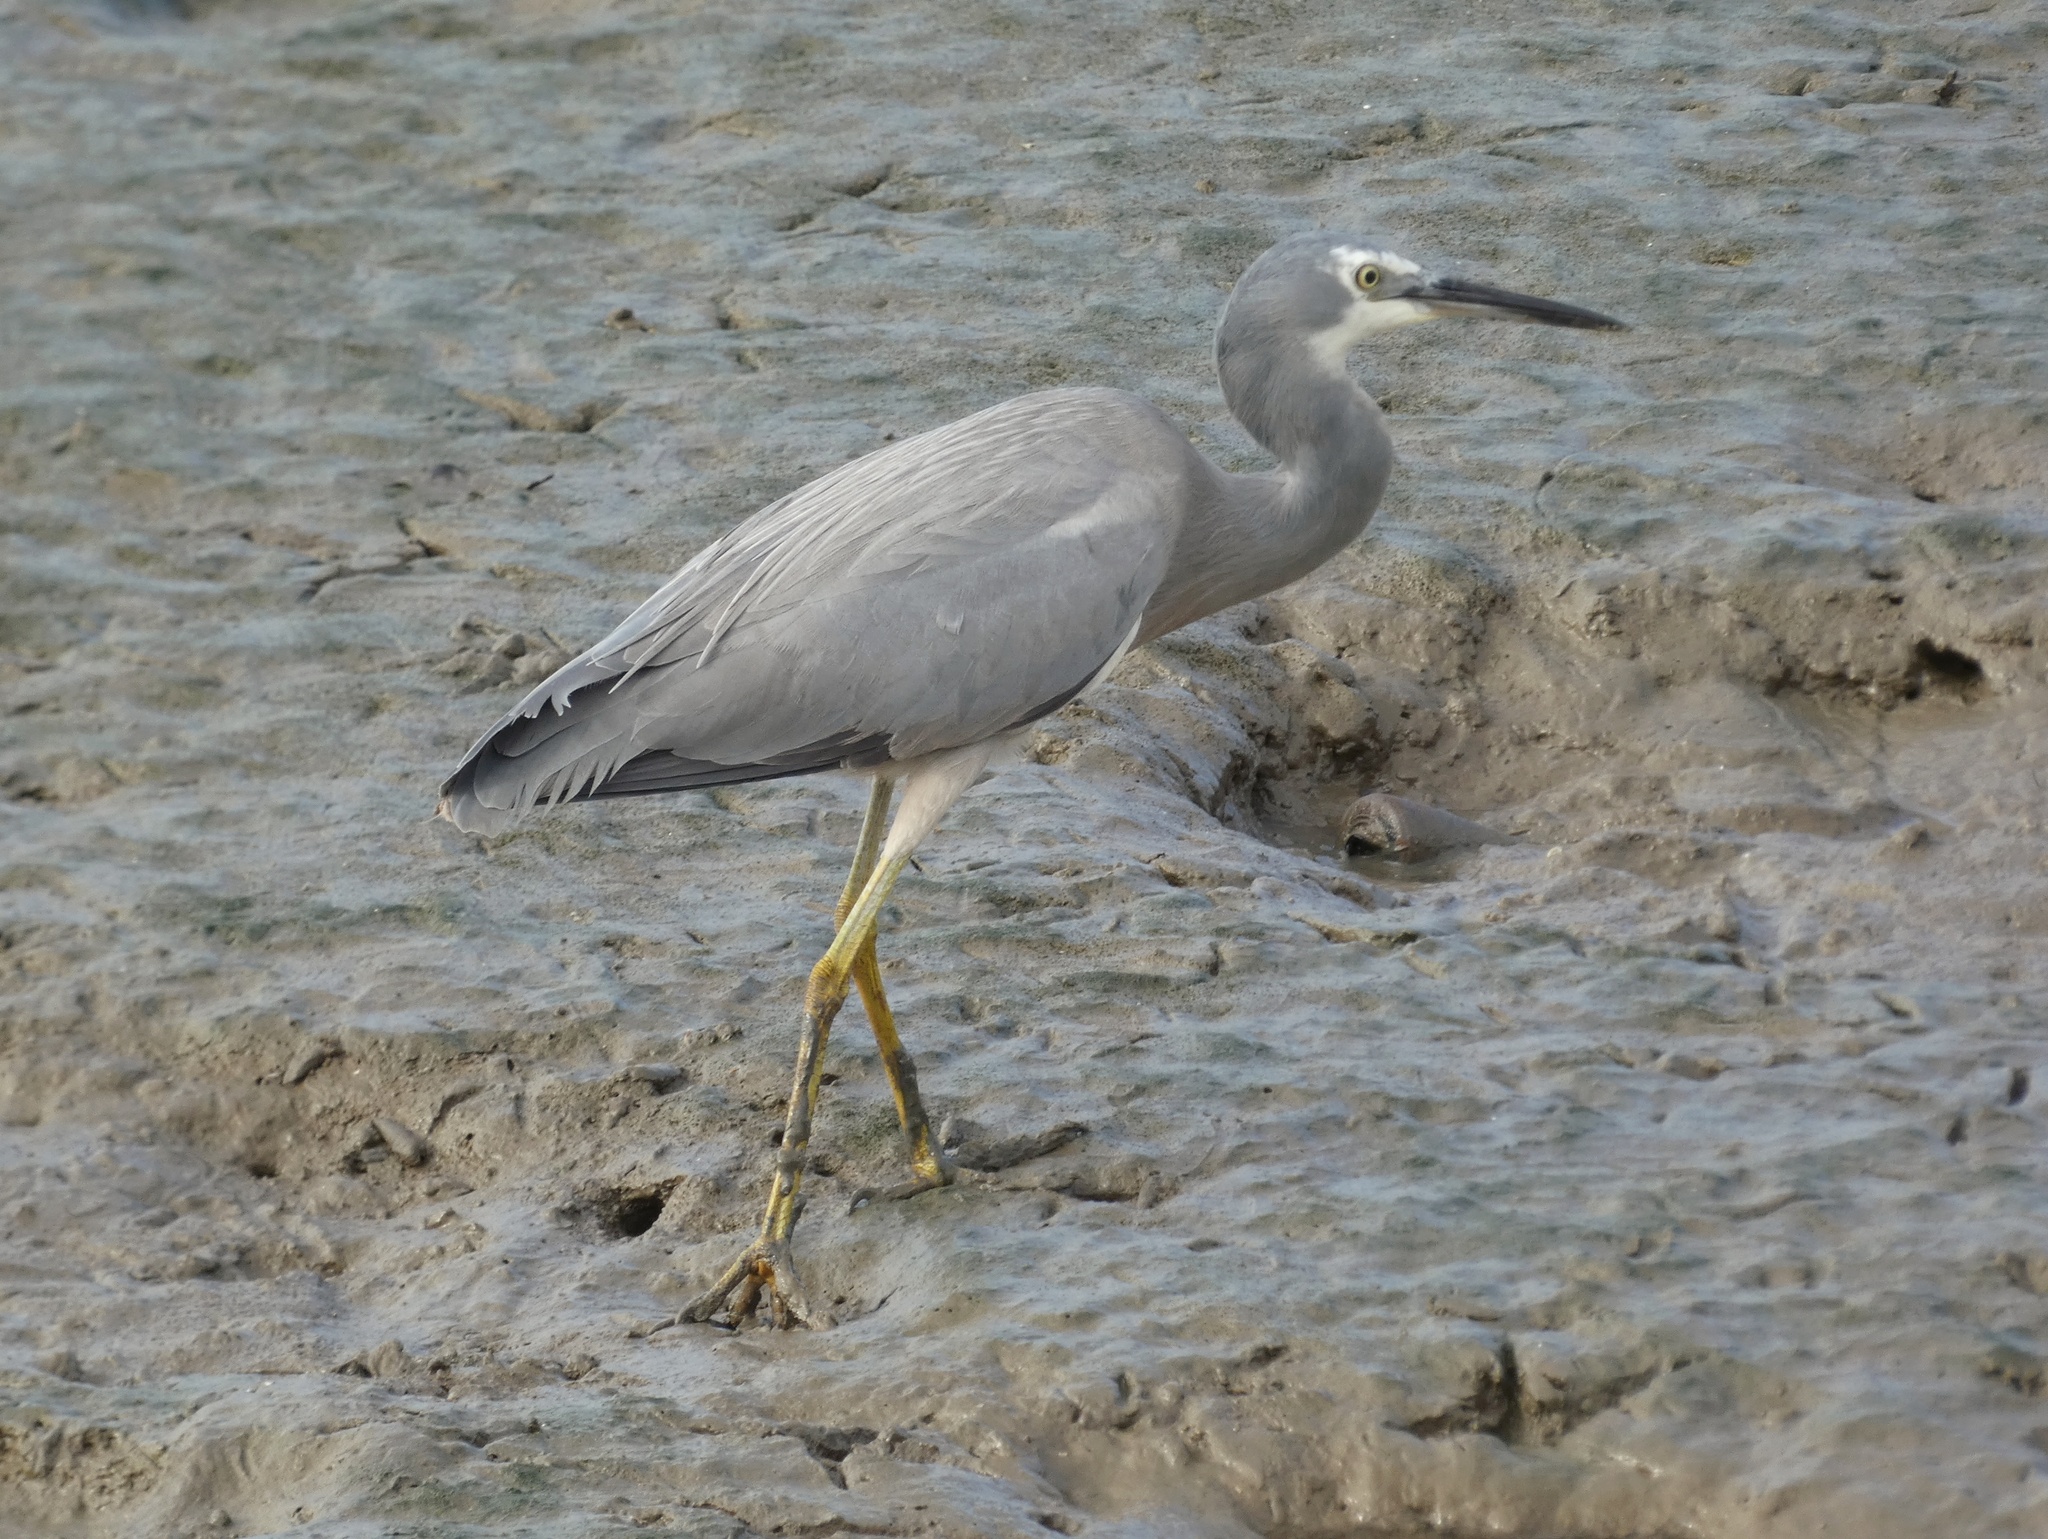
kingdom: Animalia
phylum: Chordata
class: Aves
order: Pelecaniformes
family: Ardeidae
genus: Egretta
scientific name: Egretta novaehollandiae
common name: White-faced heron
